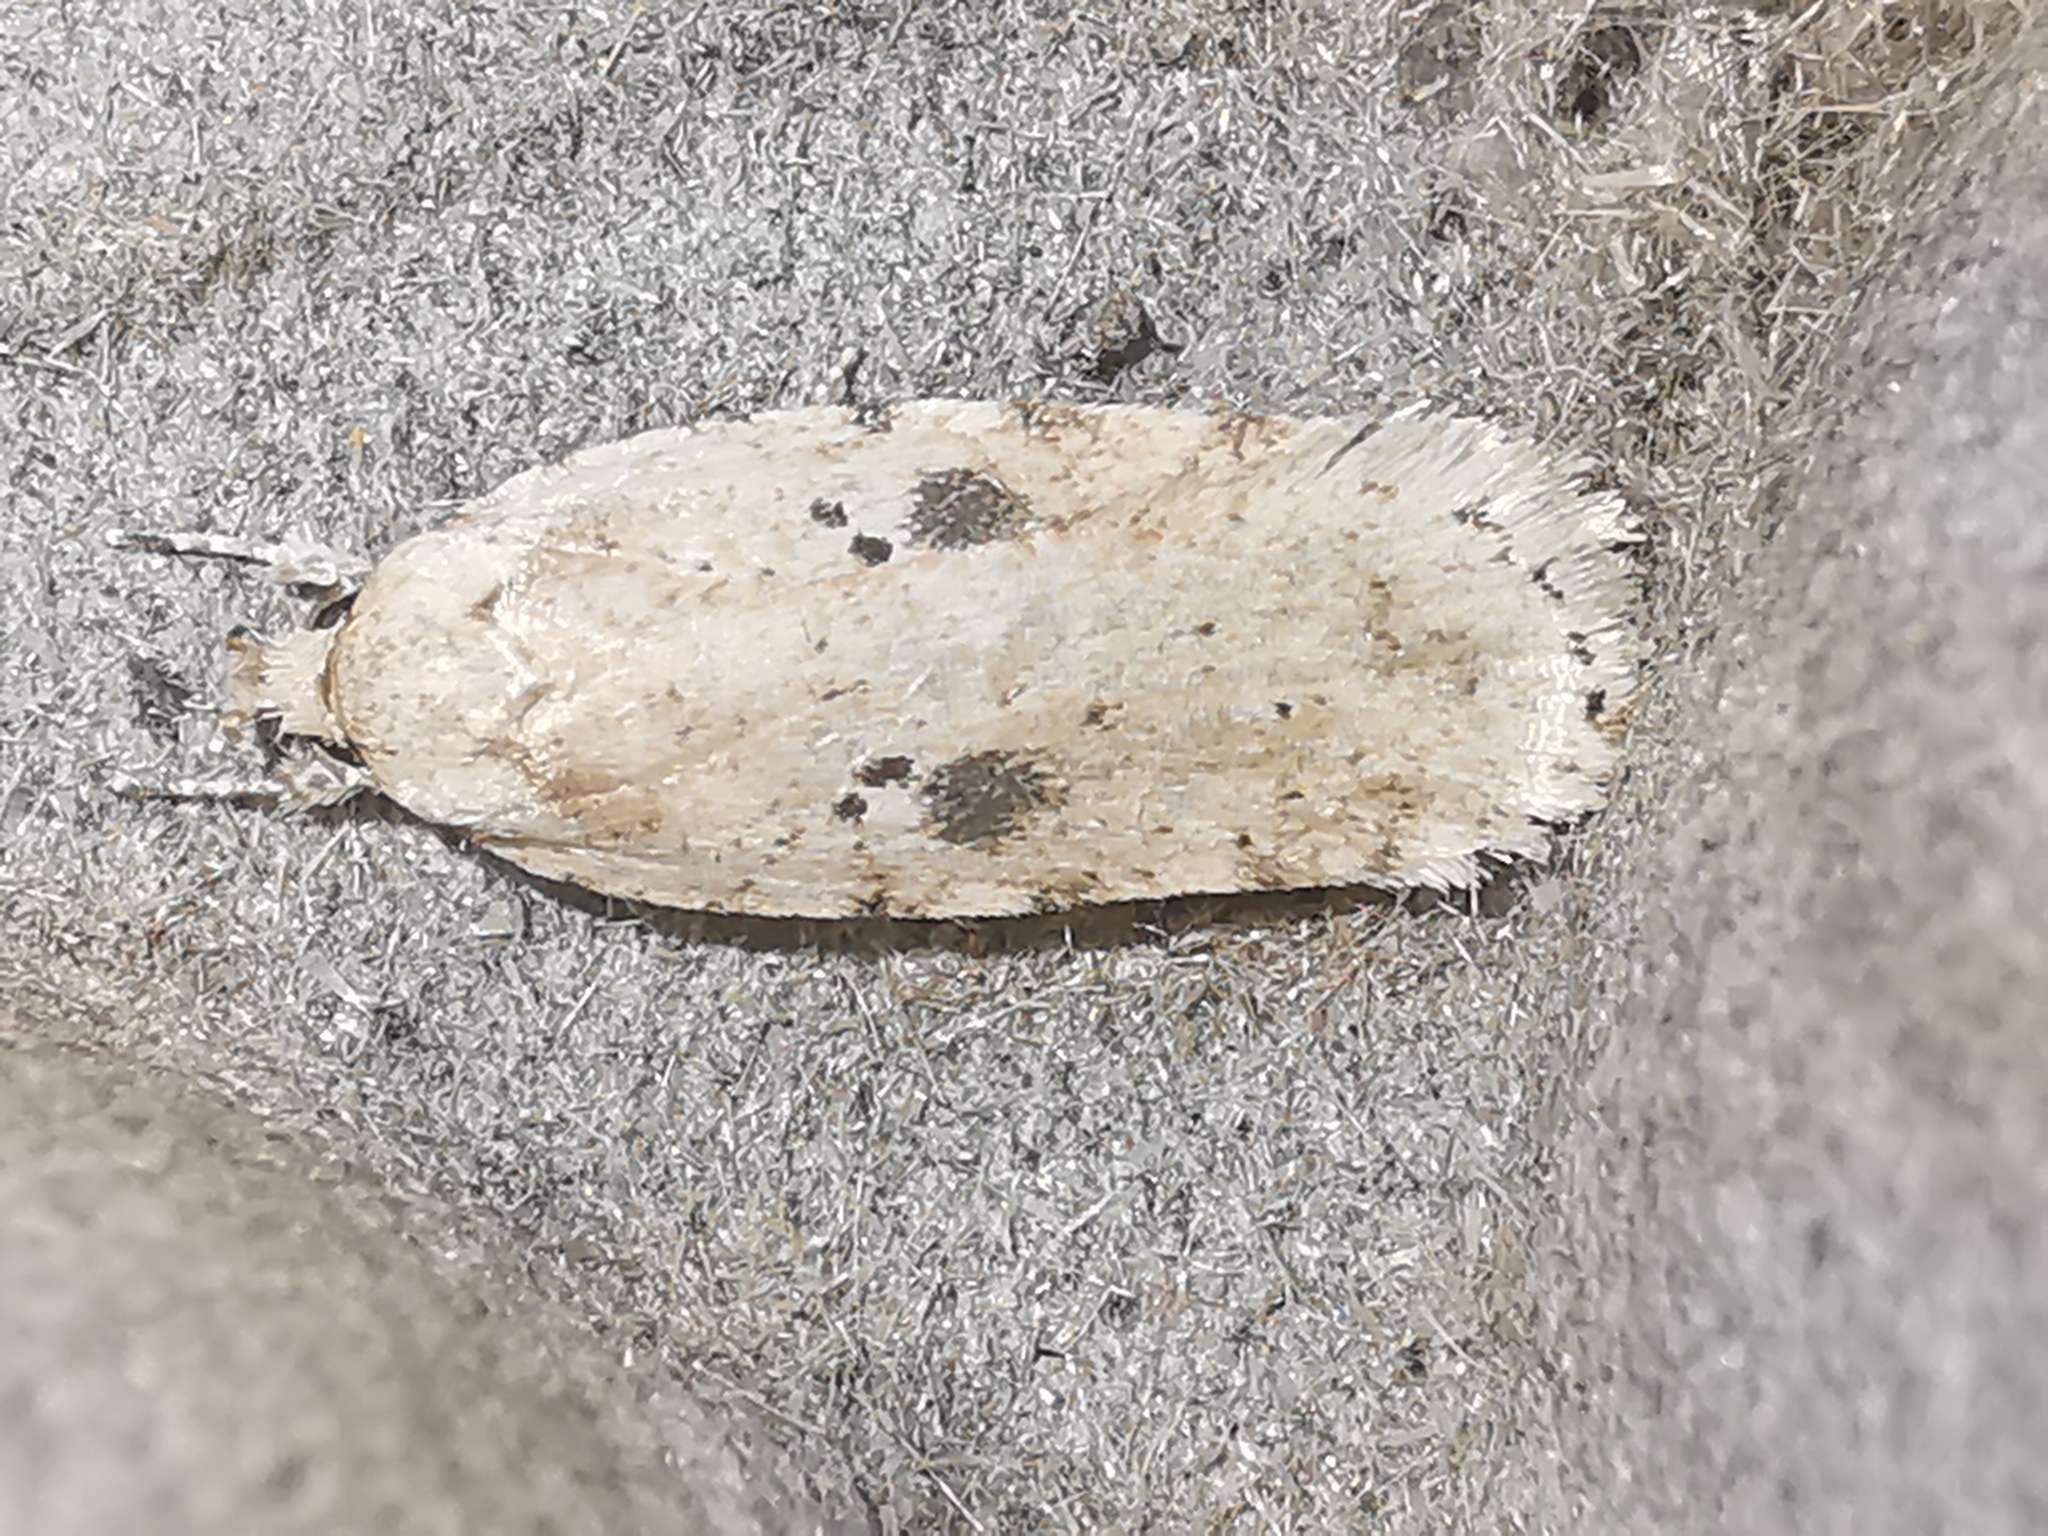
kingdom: Animalia
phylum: Arthropoda
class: Insecta
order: Lepidoptera
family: Depressariidae
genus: Agonopterix
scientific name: Agonopterix arenella
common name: Brindled flat-body
